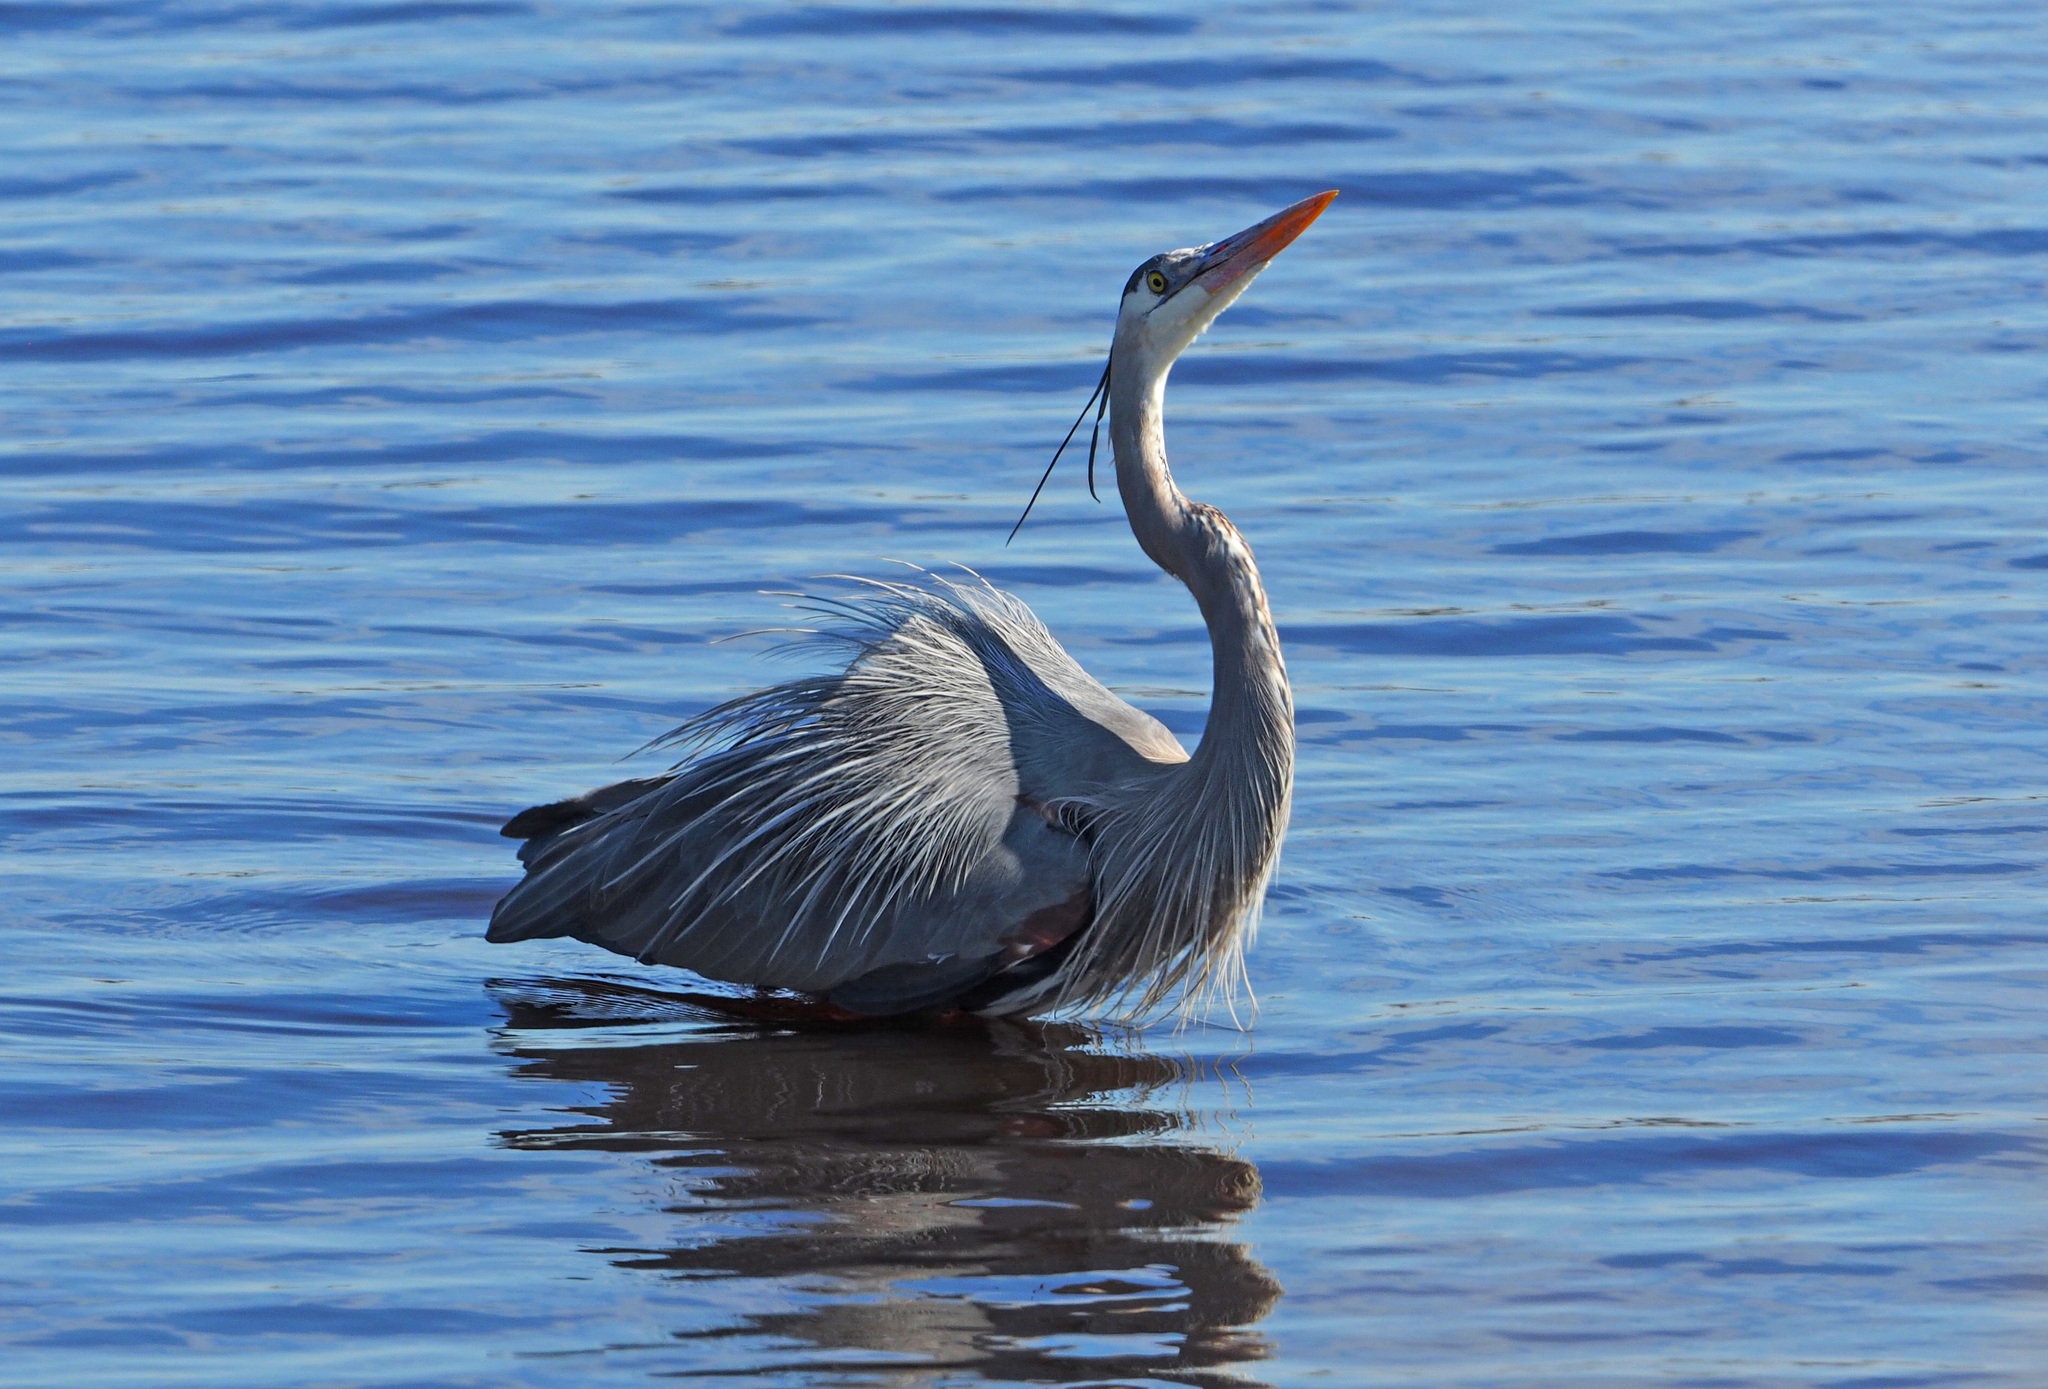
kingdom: Animalia
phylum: Chordata
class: Aves
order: Pelecaniformes
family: Ardeidae
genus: Ardea
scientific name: Ardea herodias
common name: Great blue heron
